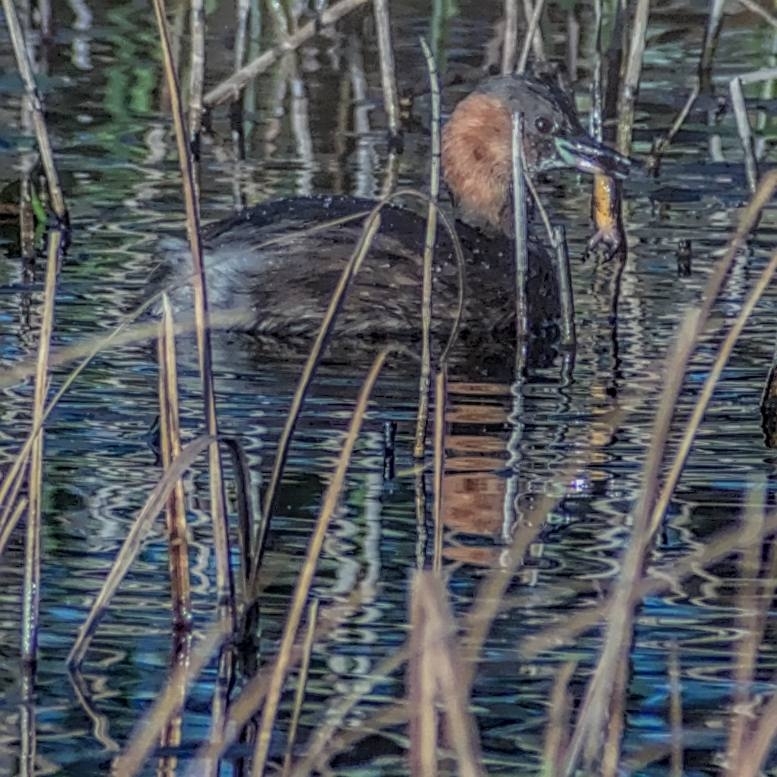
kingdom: Animalia
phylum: Chordata
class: Aves
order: Podicipediformes
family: Podicipedidae
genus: Tachybaptus
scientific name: Tachybaptus ruficollis
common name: Little grebe
